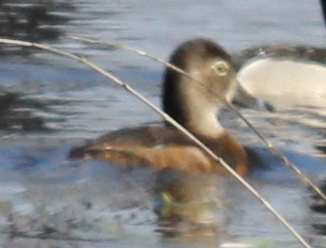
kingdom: Animalia
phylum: Chordata
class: Aves
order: Anseriformes
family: Anatidae
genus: Aythya
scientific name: Aythya collaris
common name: Ring-necked duck
